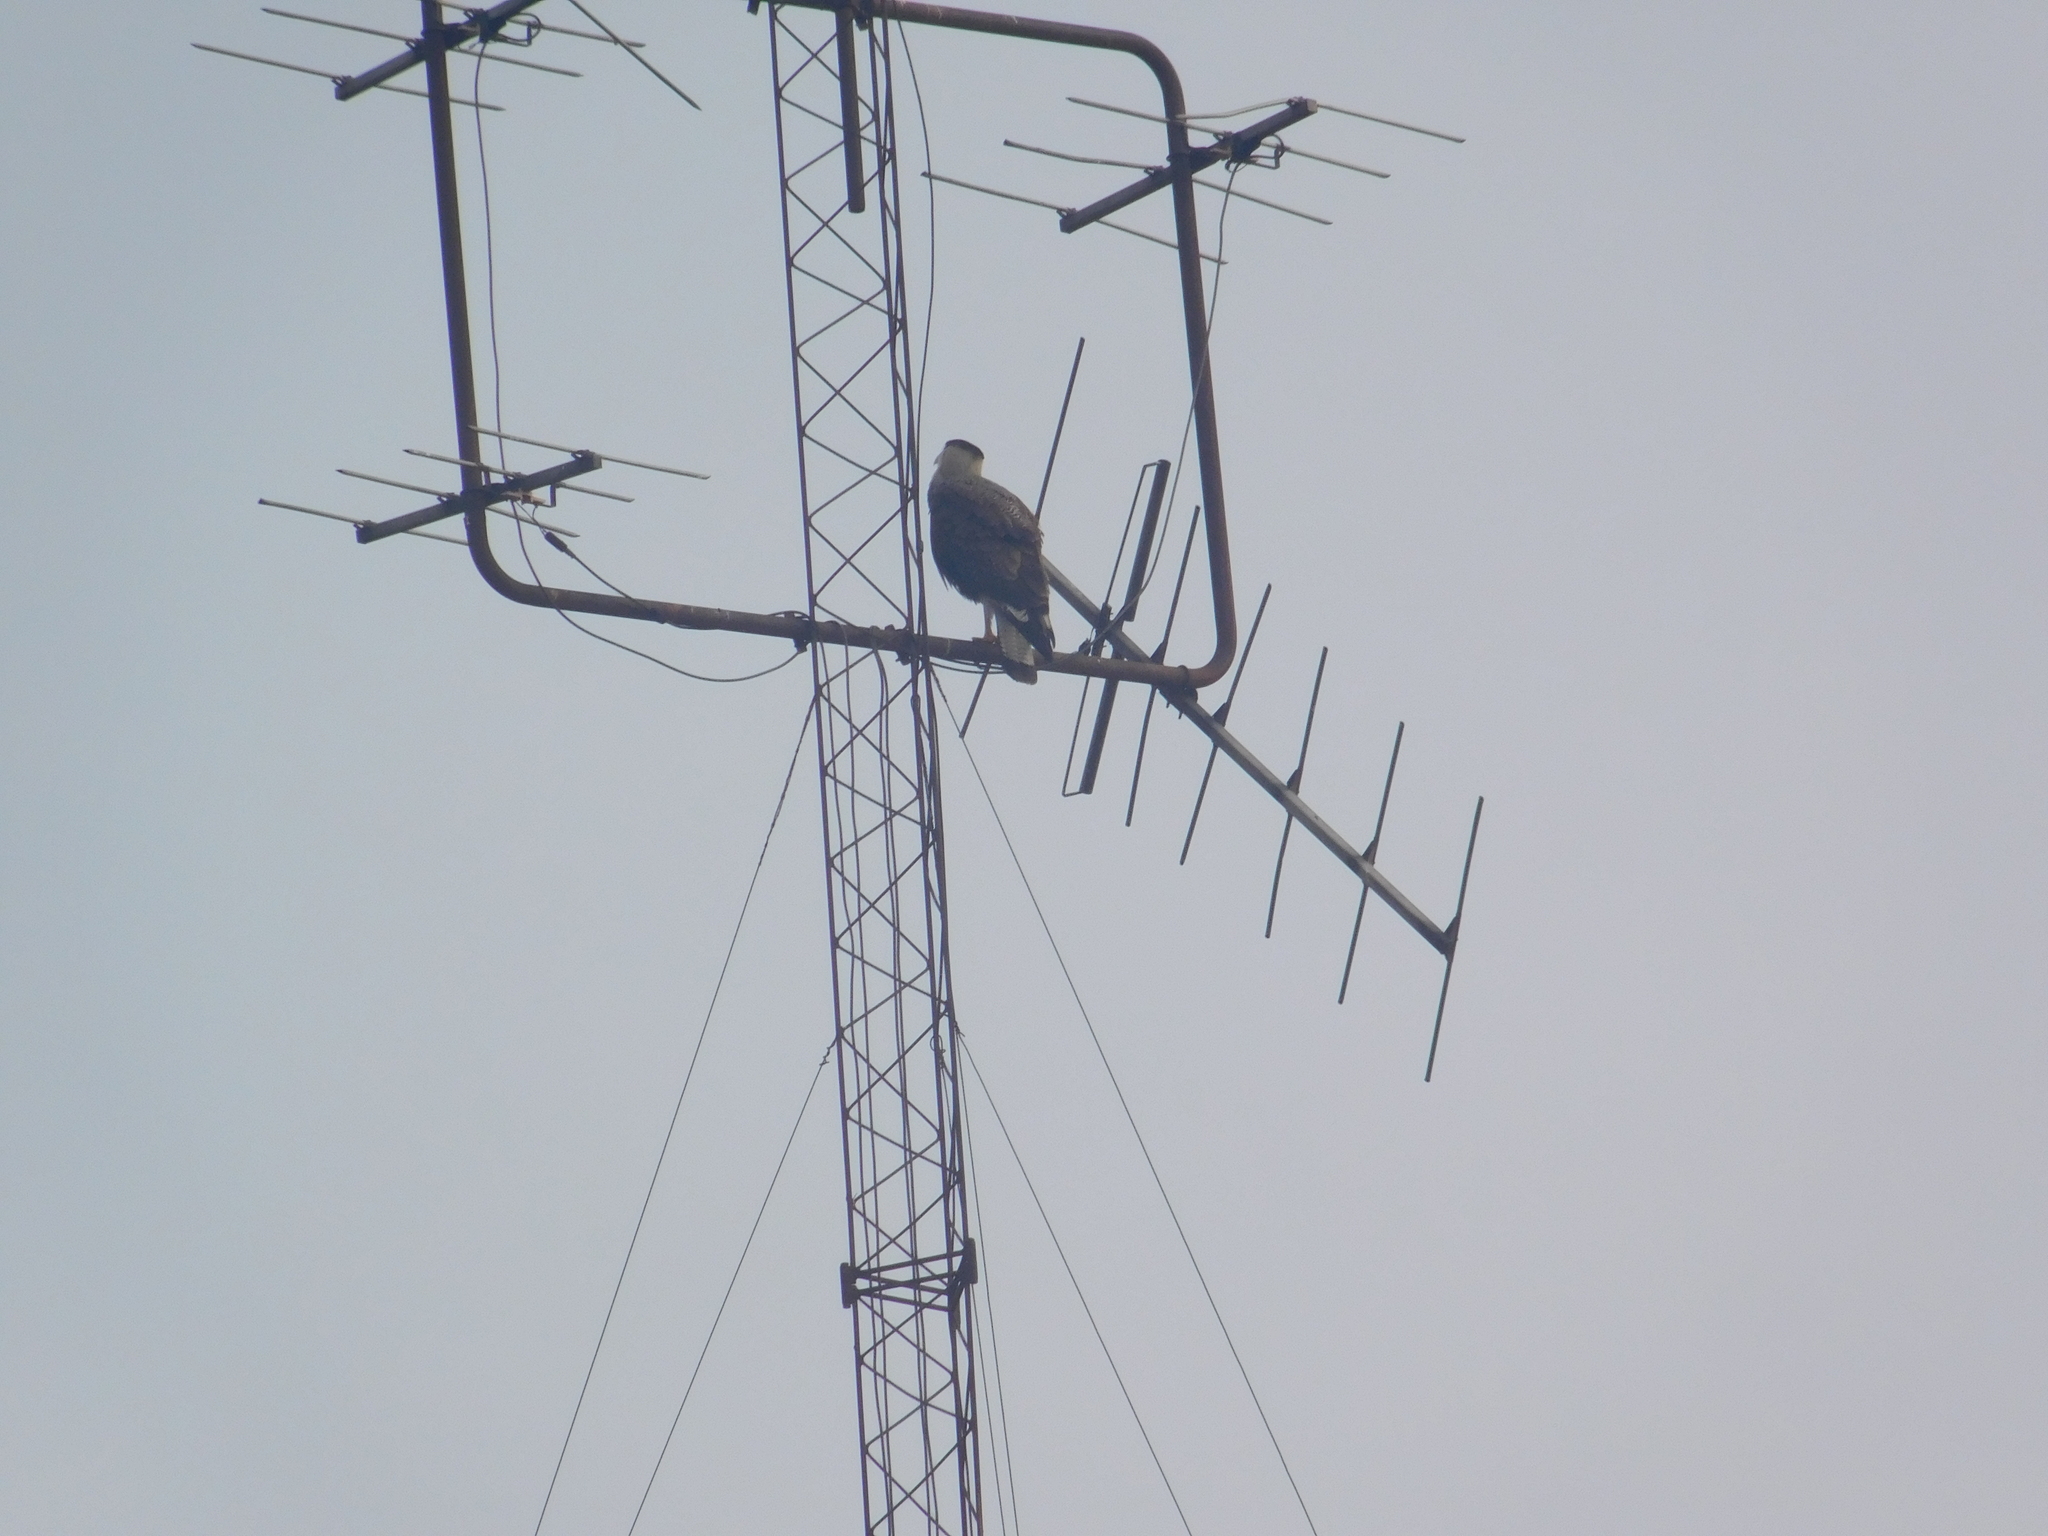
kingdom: Animalia
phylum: Chordata
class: Aves
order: Falconiformes
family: Falconidae
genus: Caracara
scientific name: Caracara plancus
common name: Southern caracara
